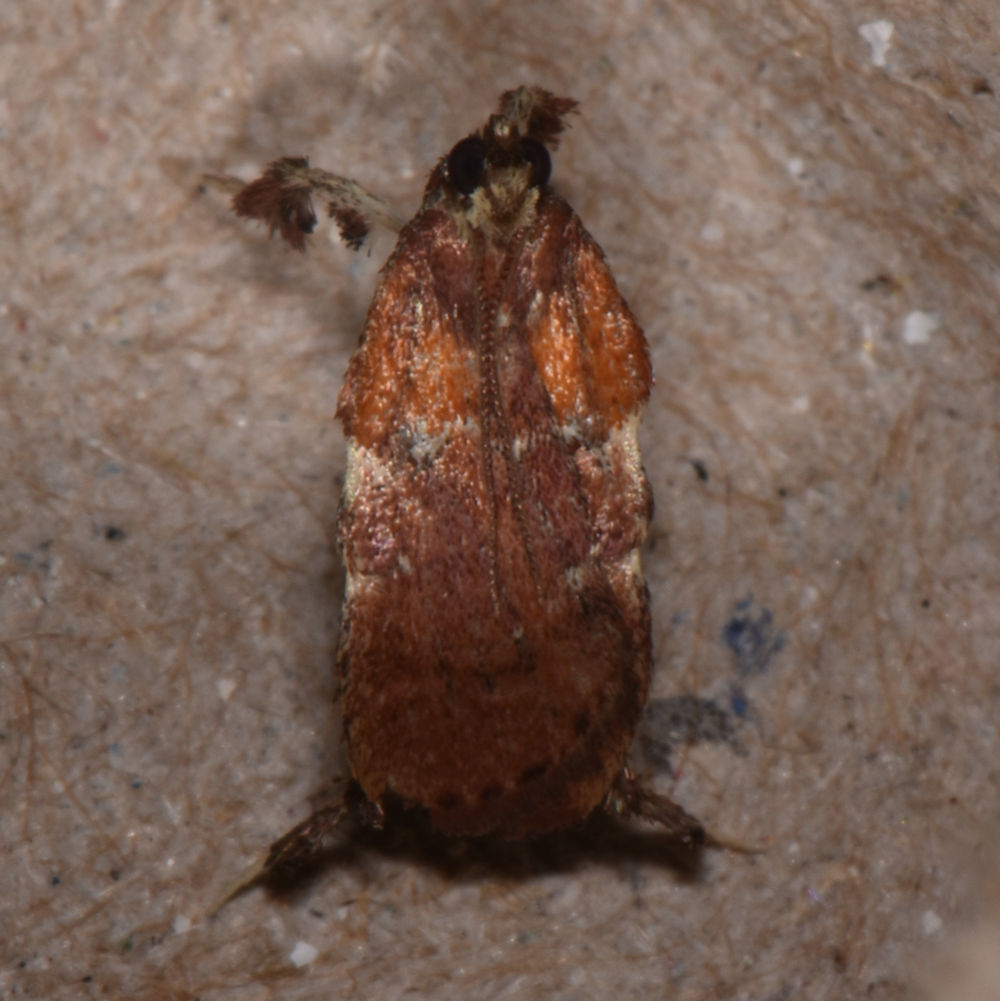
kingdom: Animalia
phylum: Arthropoda
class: Insecta
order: Lepidoptera
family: Pyralidae
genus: Galasa
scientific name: Galasa nigrinodis
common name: Boxwood leaftier moth
